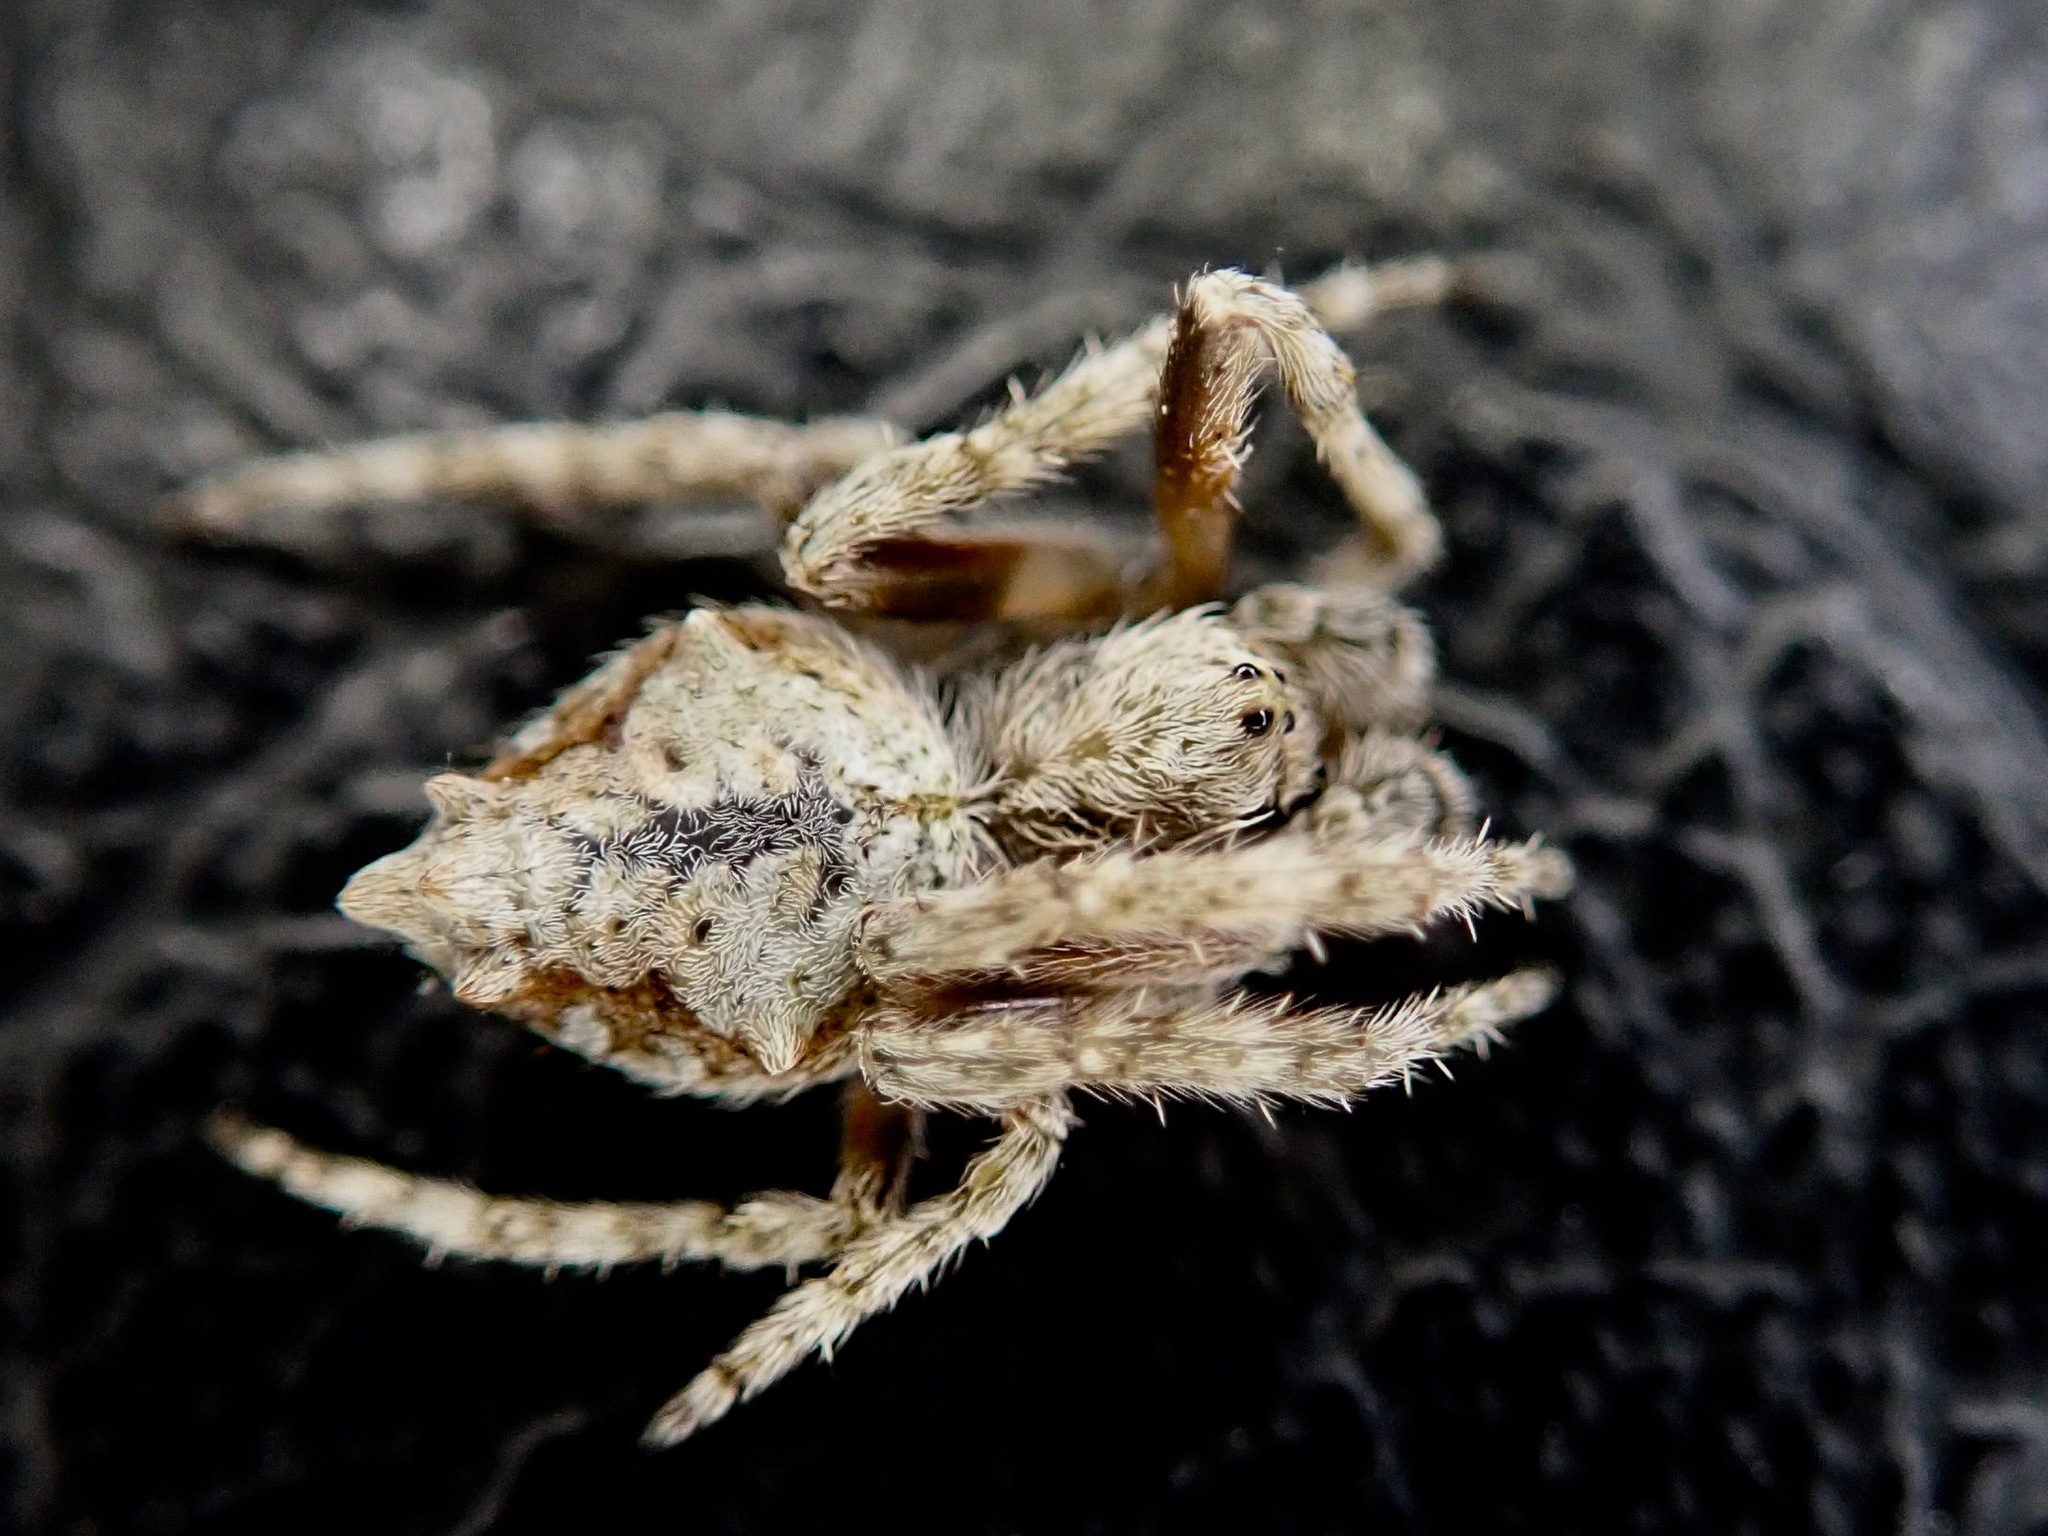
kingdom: Animalia
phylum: Arthropoda
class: Arachnida
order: Araneae
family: Araneidae
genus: Eriophora
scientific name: Eriophora pustulosa
